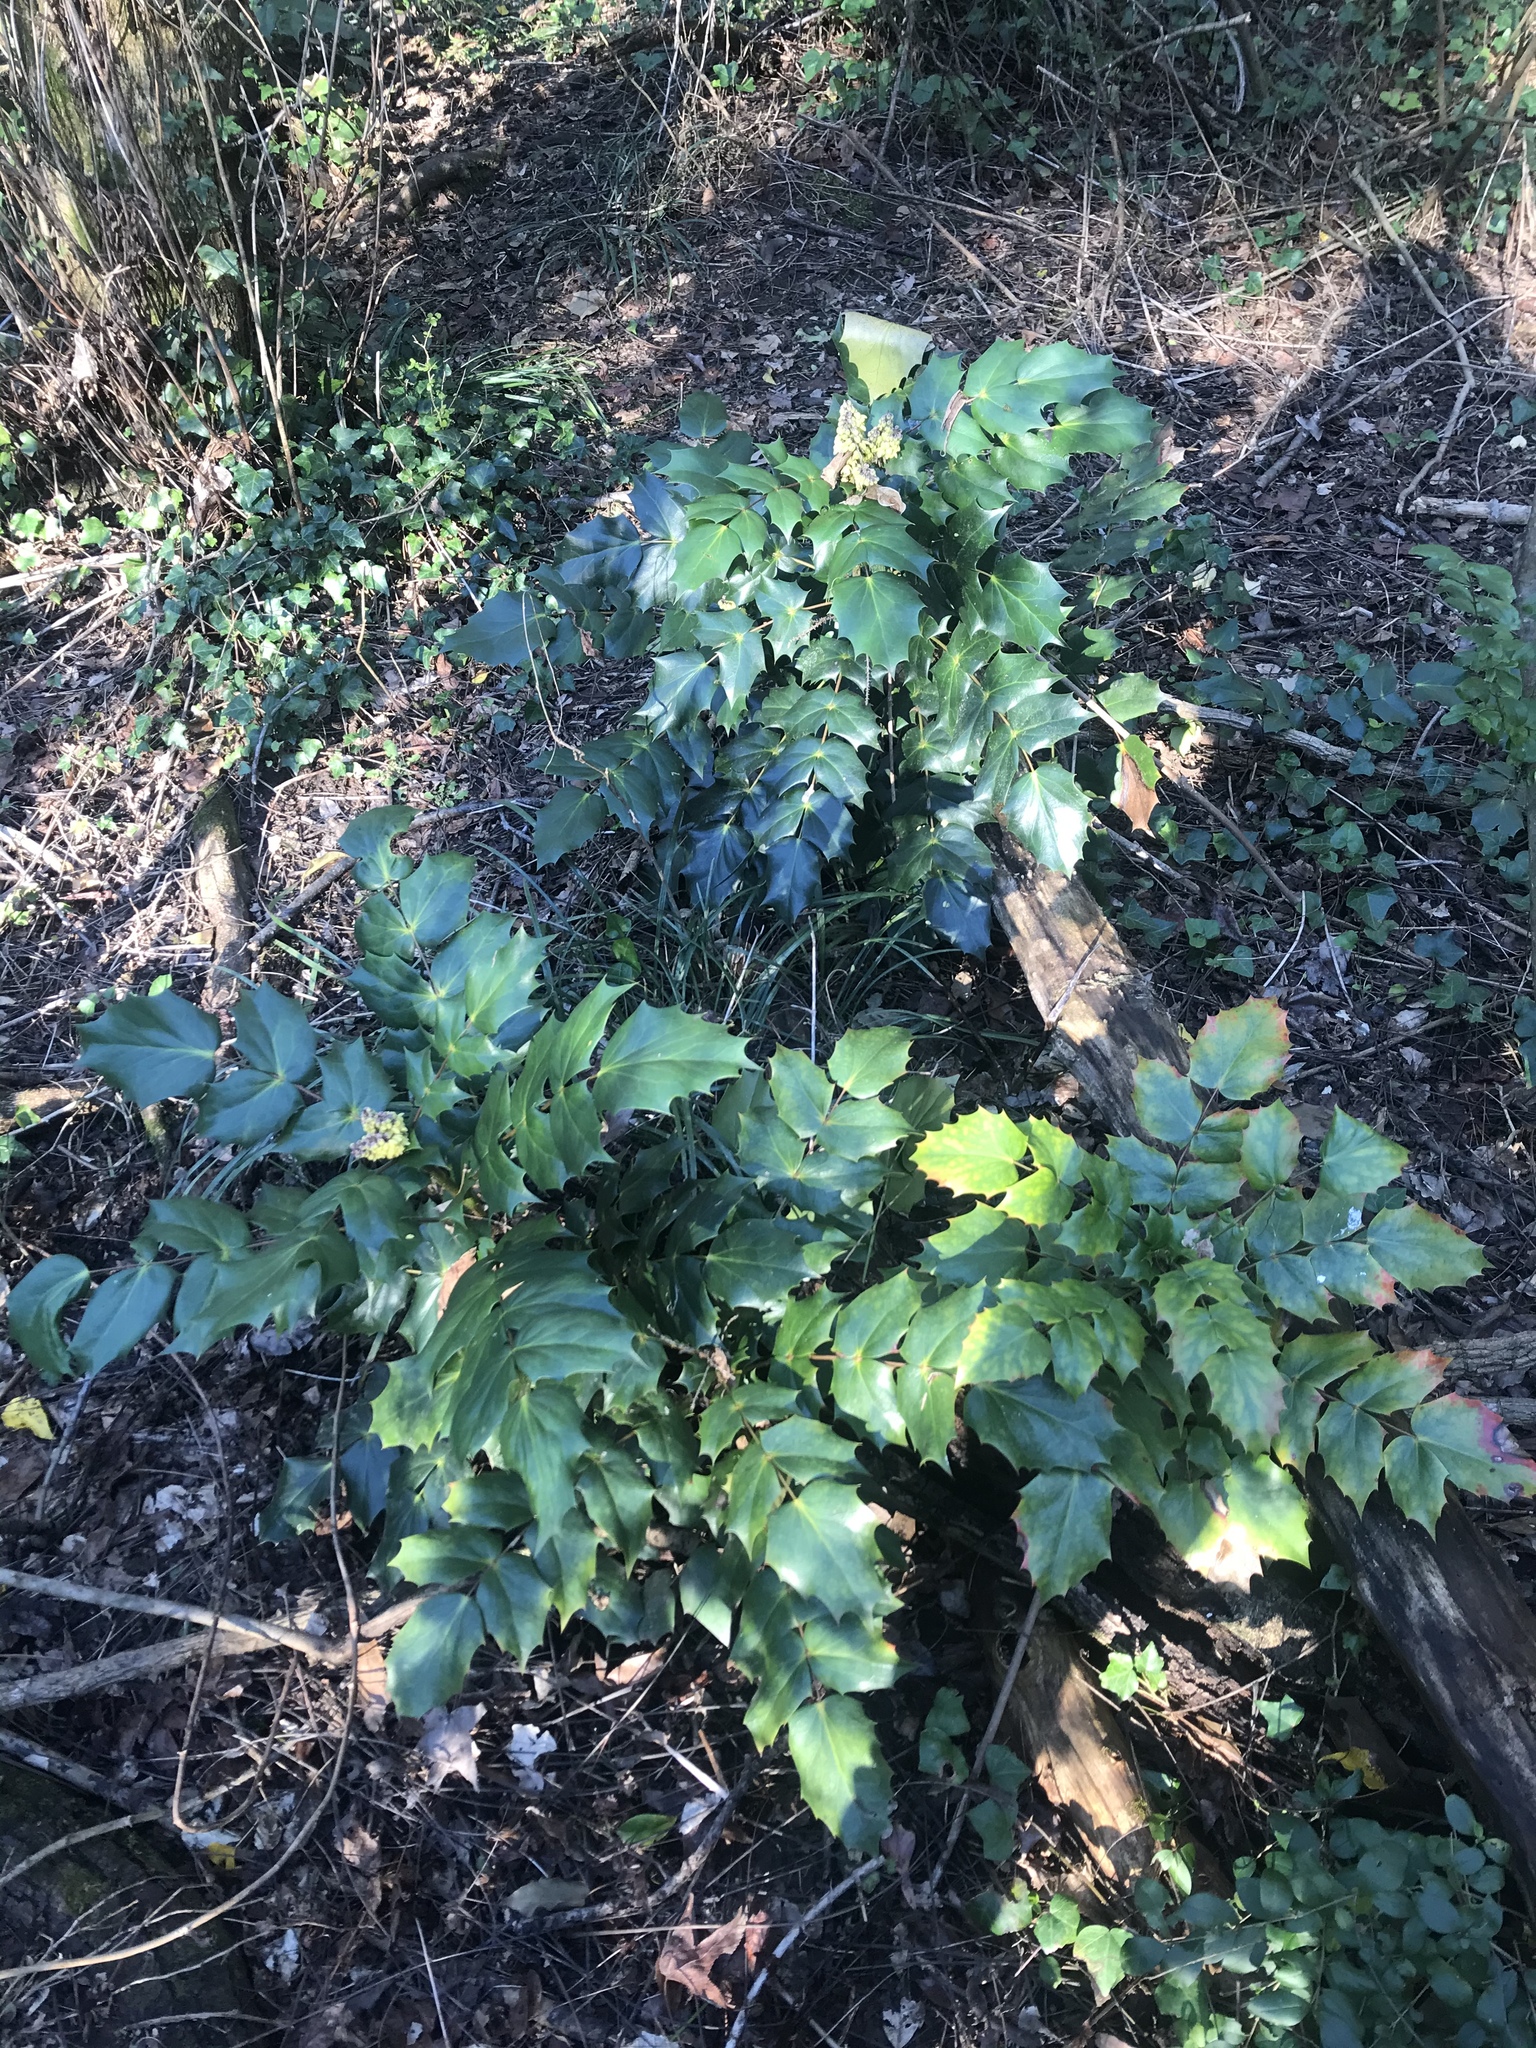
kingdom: Plantae
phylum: Tracheophyta
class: Magnoliopsida
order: Ranunculales
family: Berberidaceae
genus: Mahonia
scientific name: Mahonia bealei
